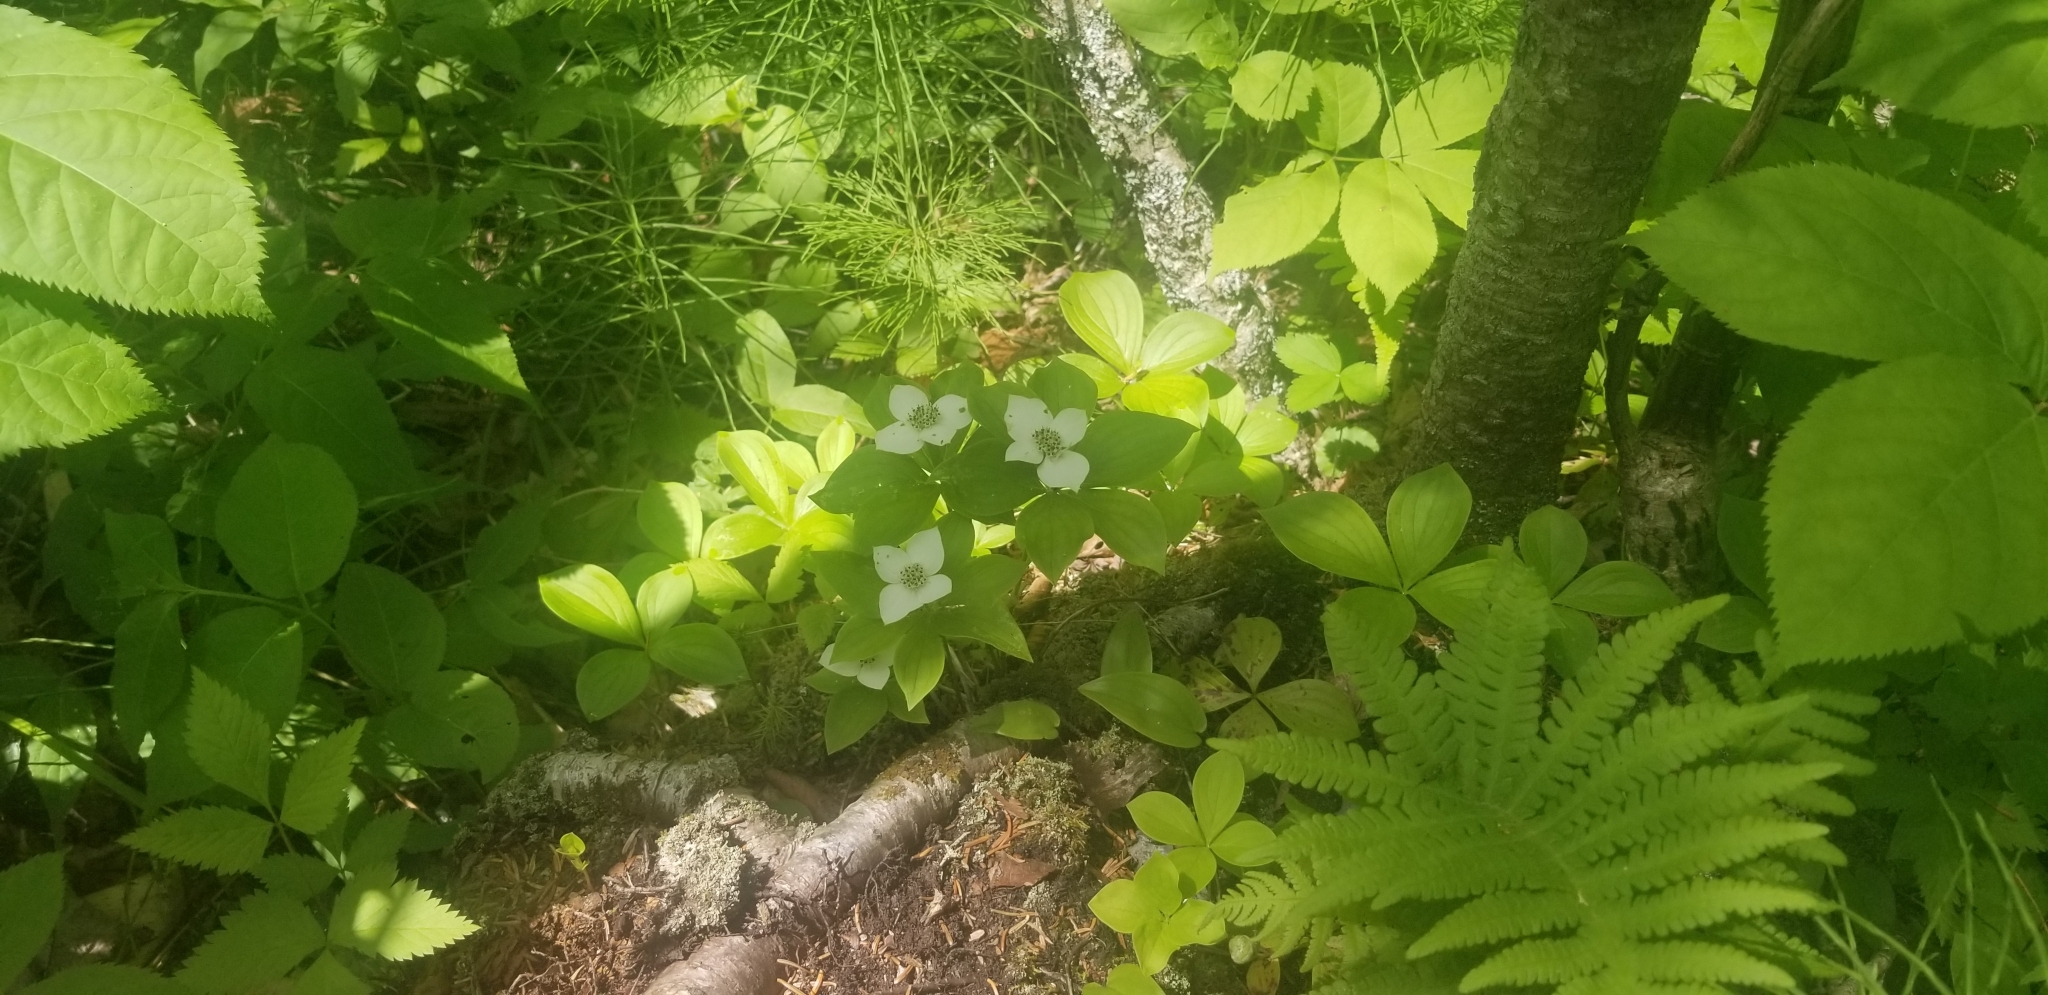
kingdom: Plantae
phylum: Tracheophyta
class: Magnoliopsida
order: Cornales
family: Cornaceae
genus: Cornus
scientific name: Cornus canadensis
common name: Creeping dogwood
